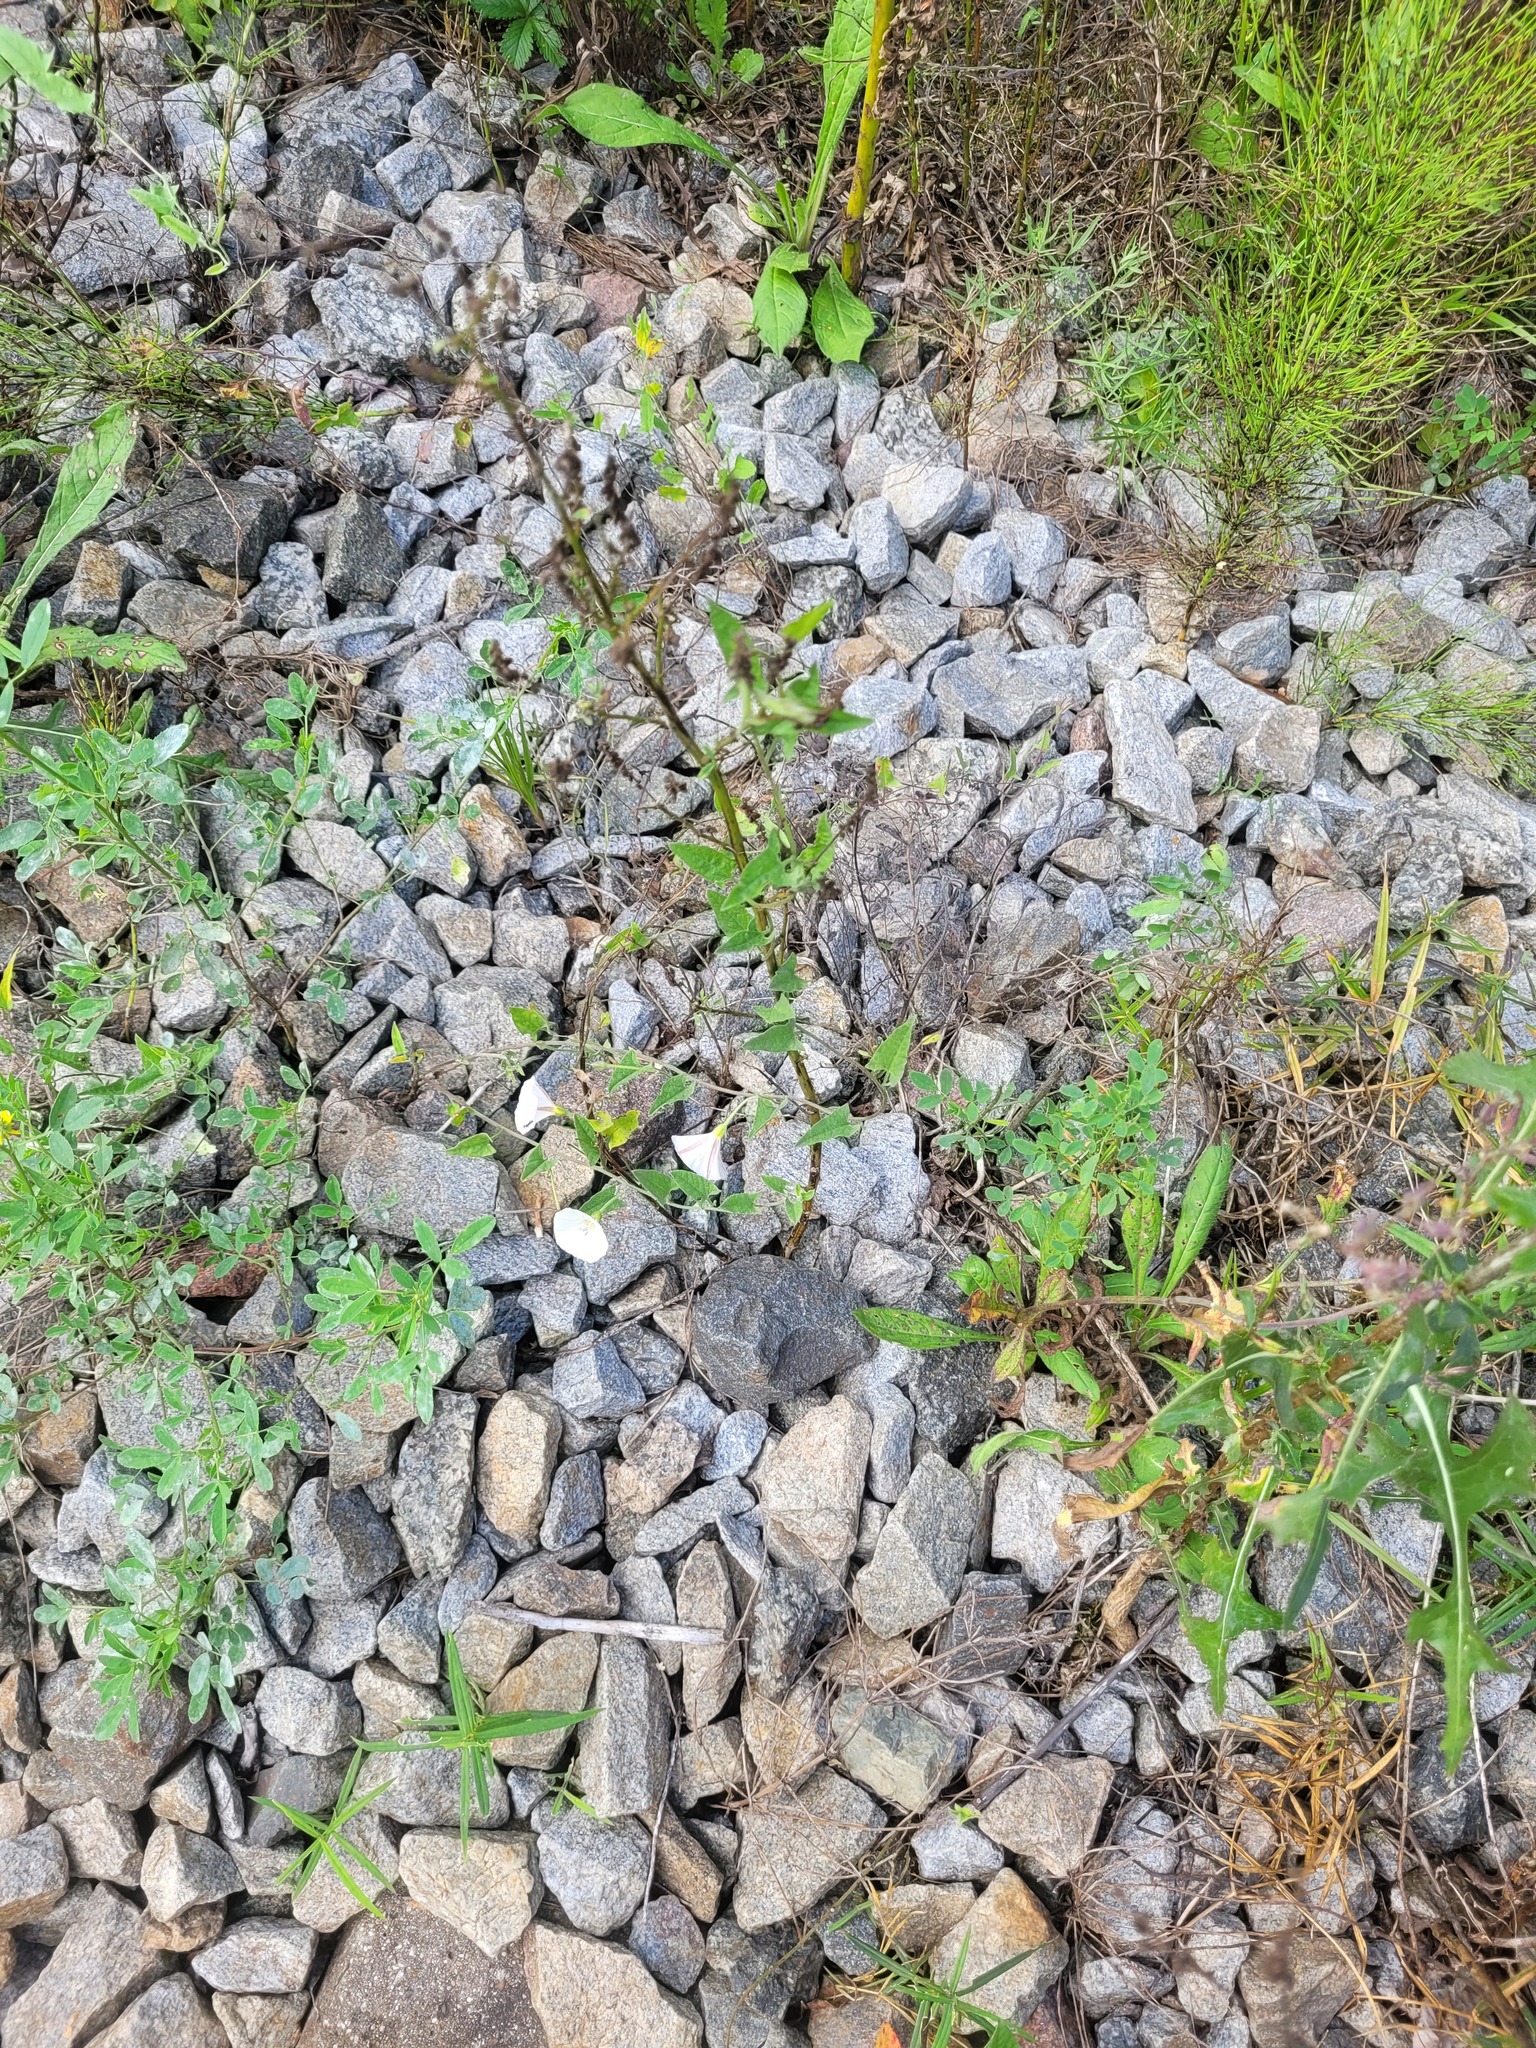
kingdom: Plantae
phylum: Tracheophyta
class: Magnoliopsida
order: Solanales
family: Convolvulaceae
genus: Convolvulus
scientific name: Convolvulus arvensis
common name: Field bindweed
